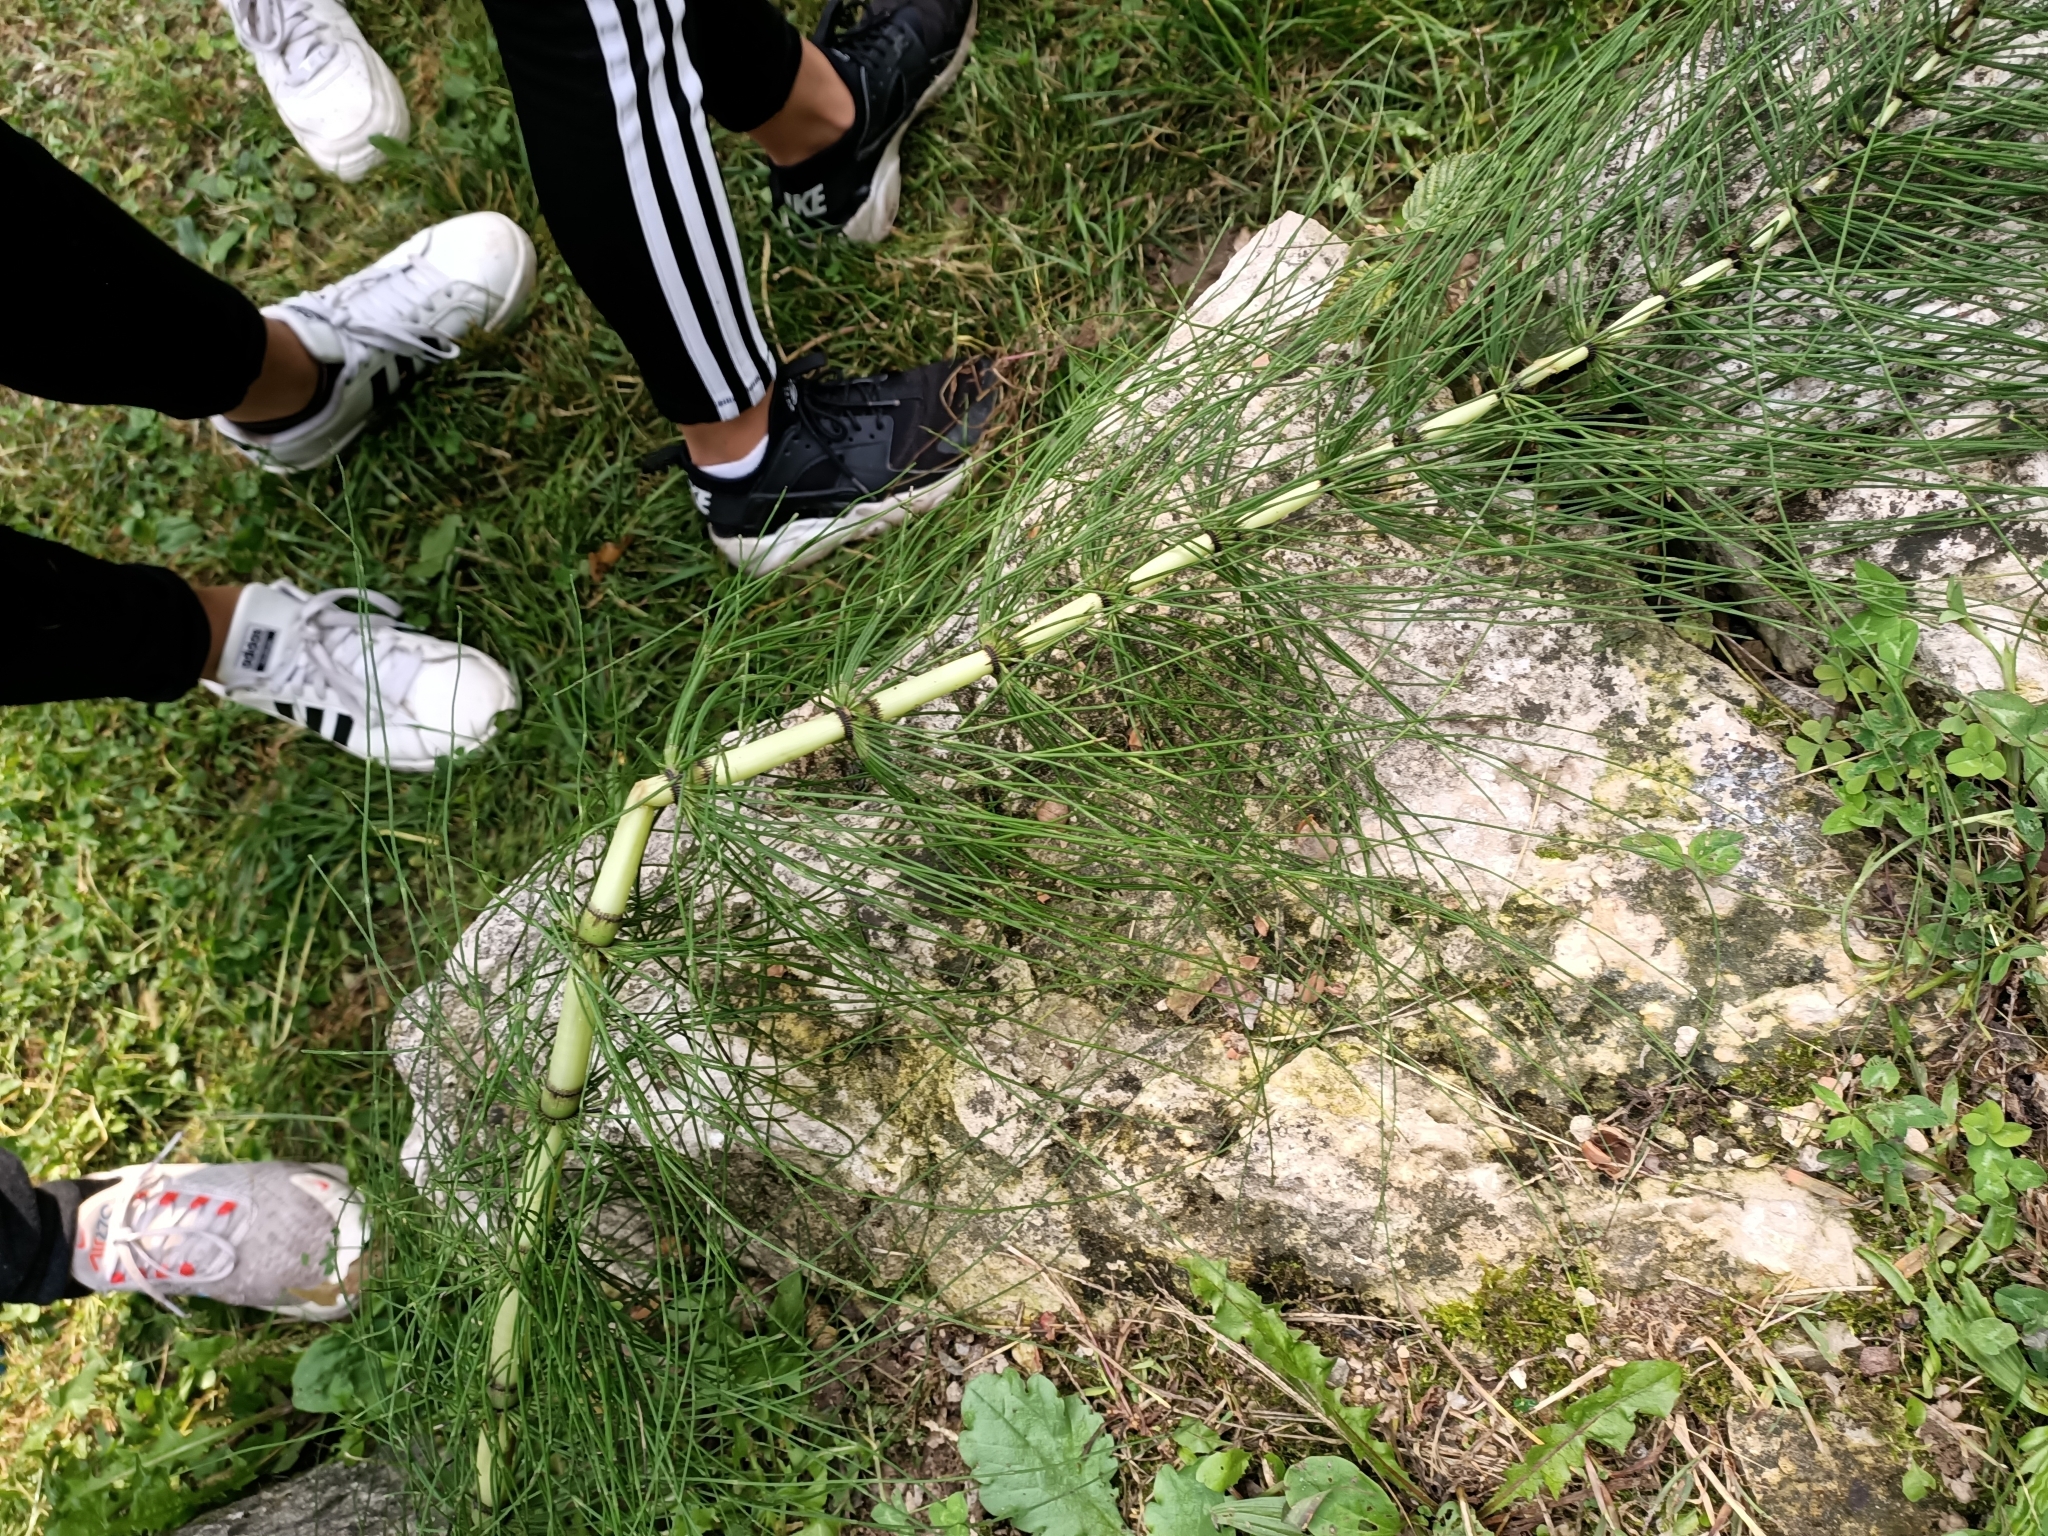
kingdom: Plantae
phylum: Tracheophyta
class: Polypodiopsida
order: Equisetales
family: Equisetaceae
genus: Equisetum
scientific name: Equisetum telmateia
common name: Great horsetail
